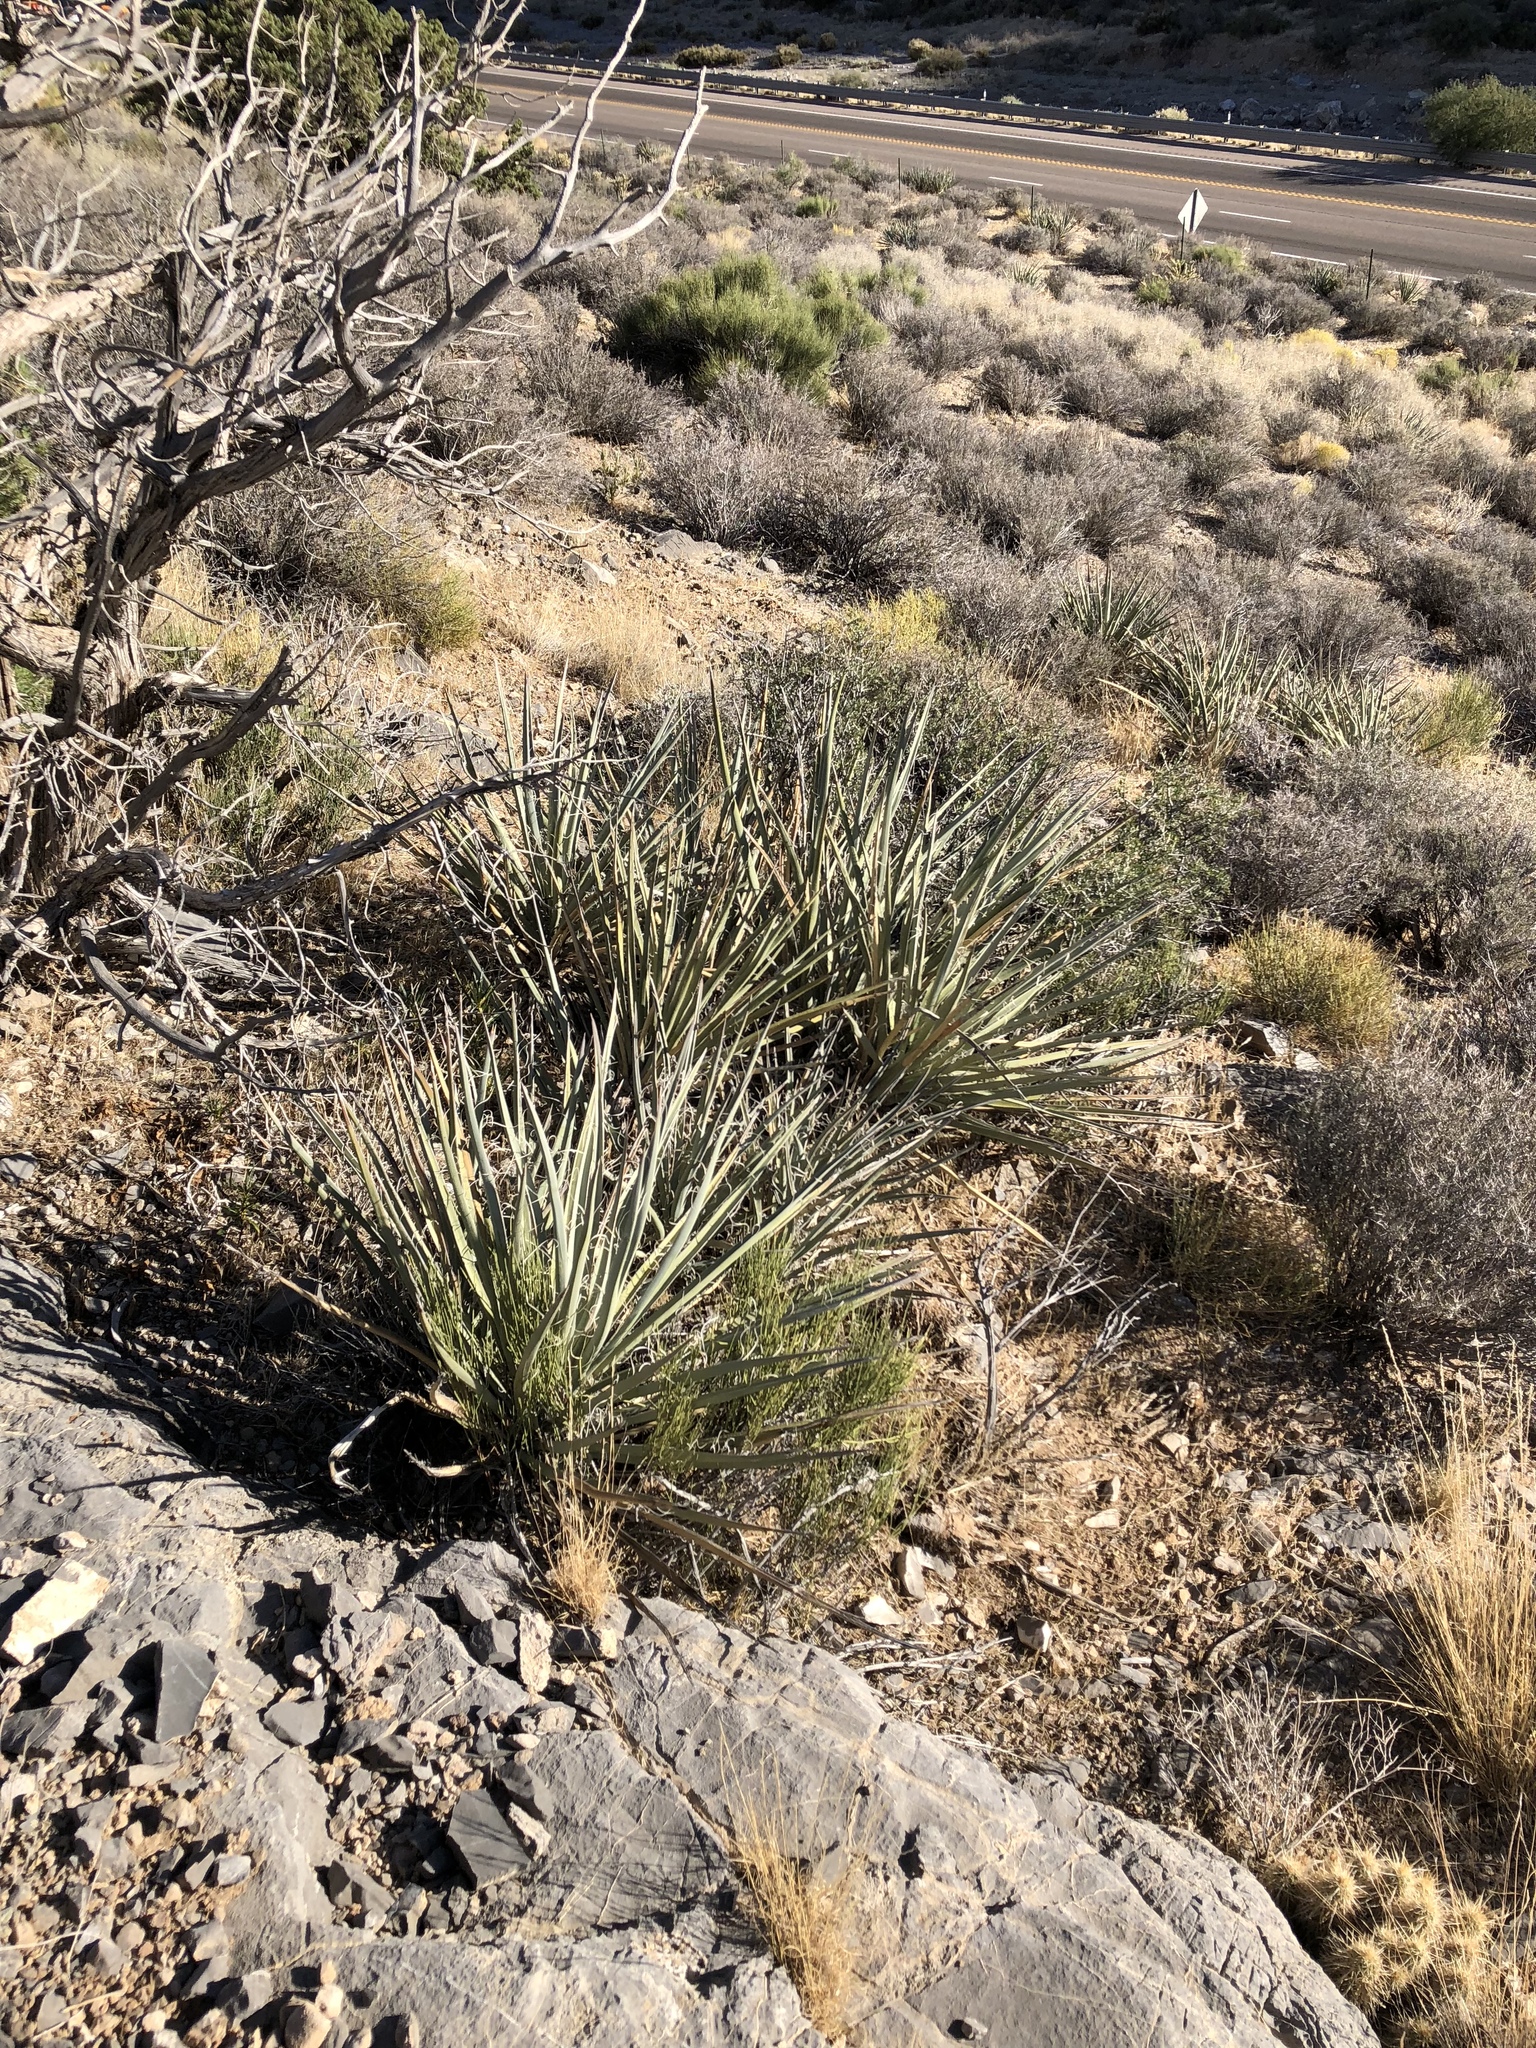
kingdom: Plantae
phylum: Tracheophyta
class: Liliopsida
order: Asparagales
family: Asparagaceae
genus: Yucca
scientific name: Yucca baccata
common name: Banana yucca
